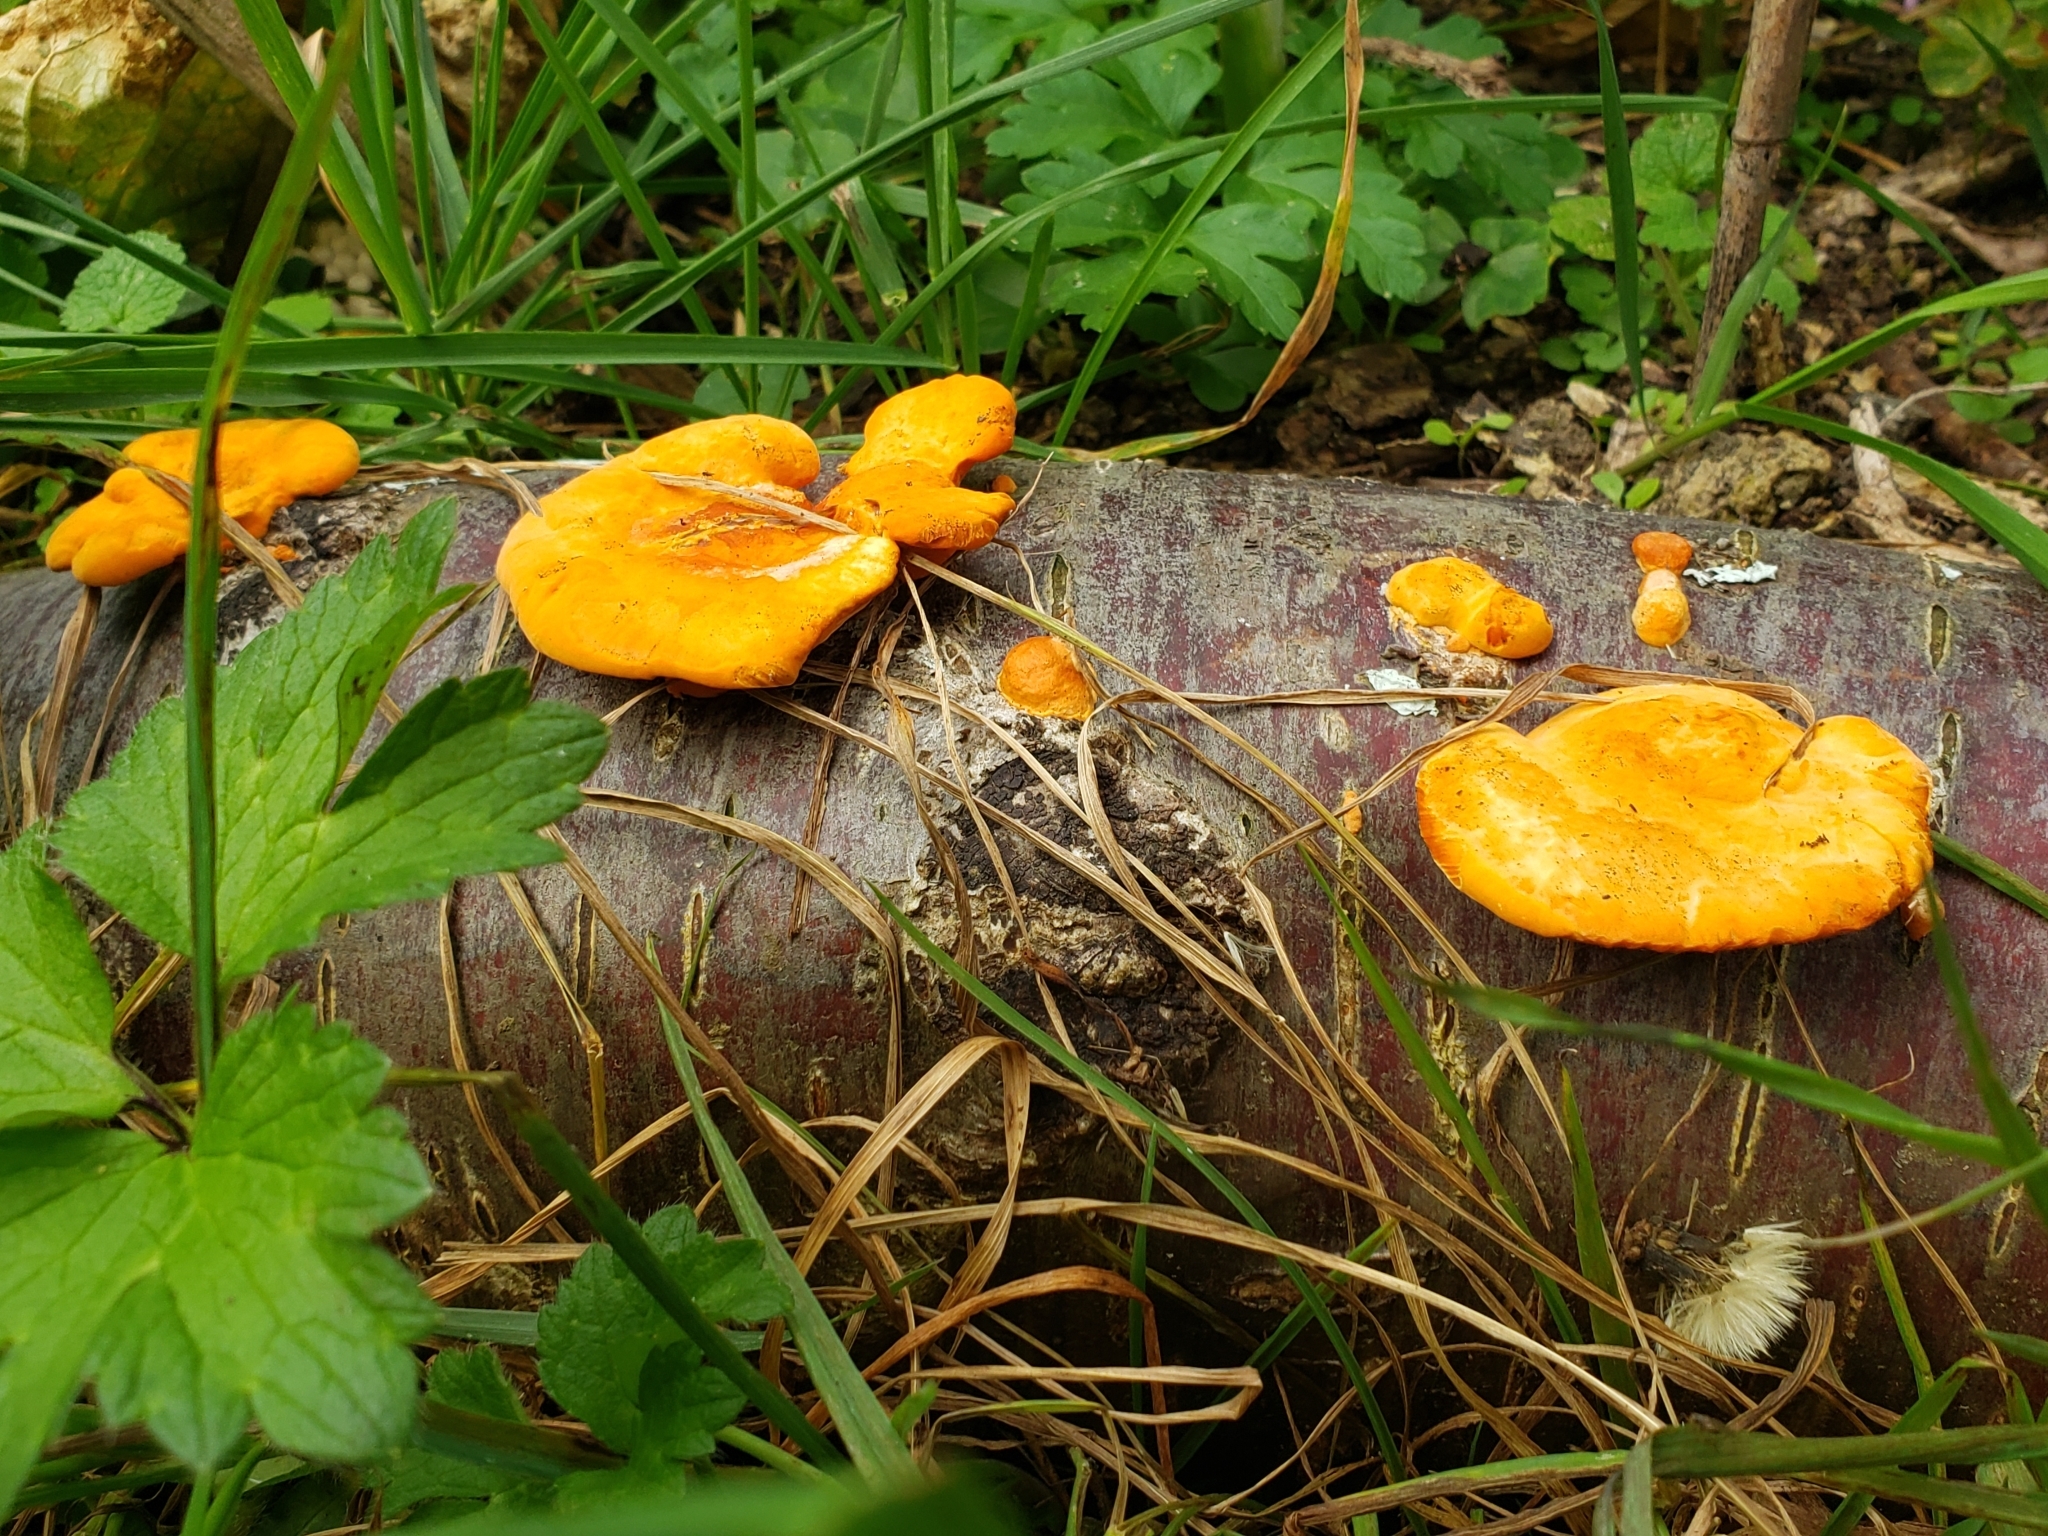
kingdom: Fungi
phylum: Basidiomycota
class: Agaricomycetes
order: Polyporales
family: Polyporaceae
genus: Trametes
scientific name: Trametes coccinea
